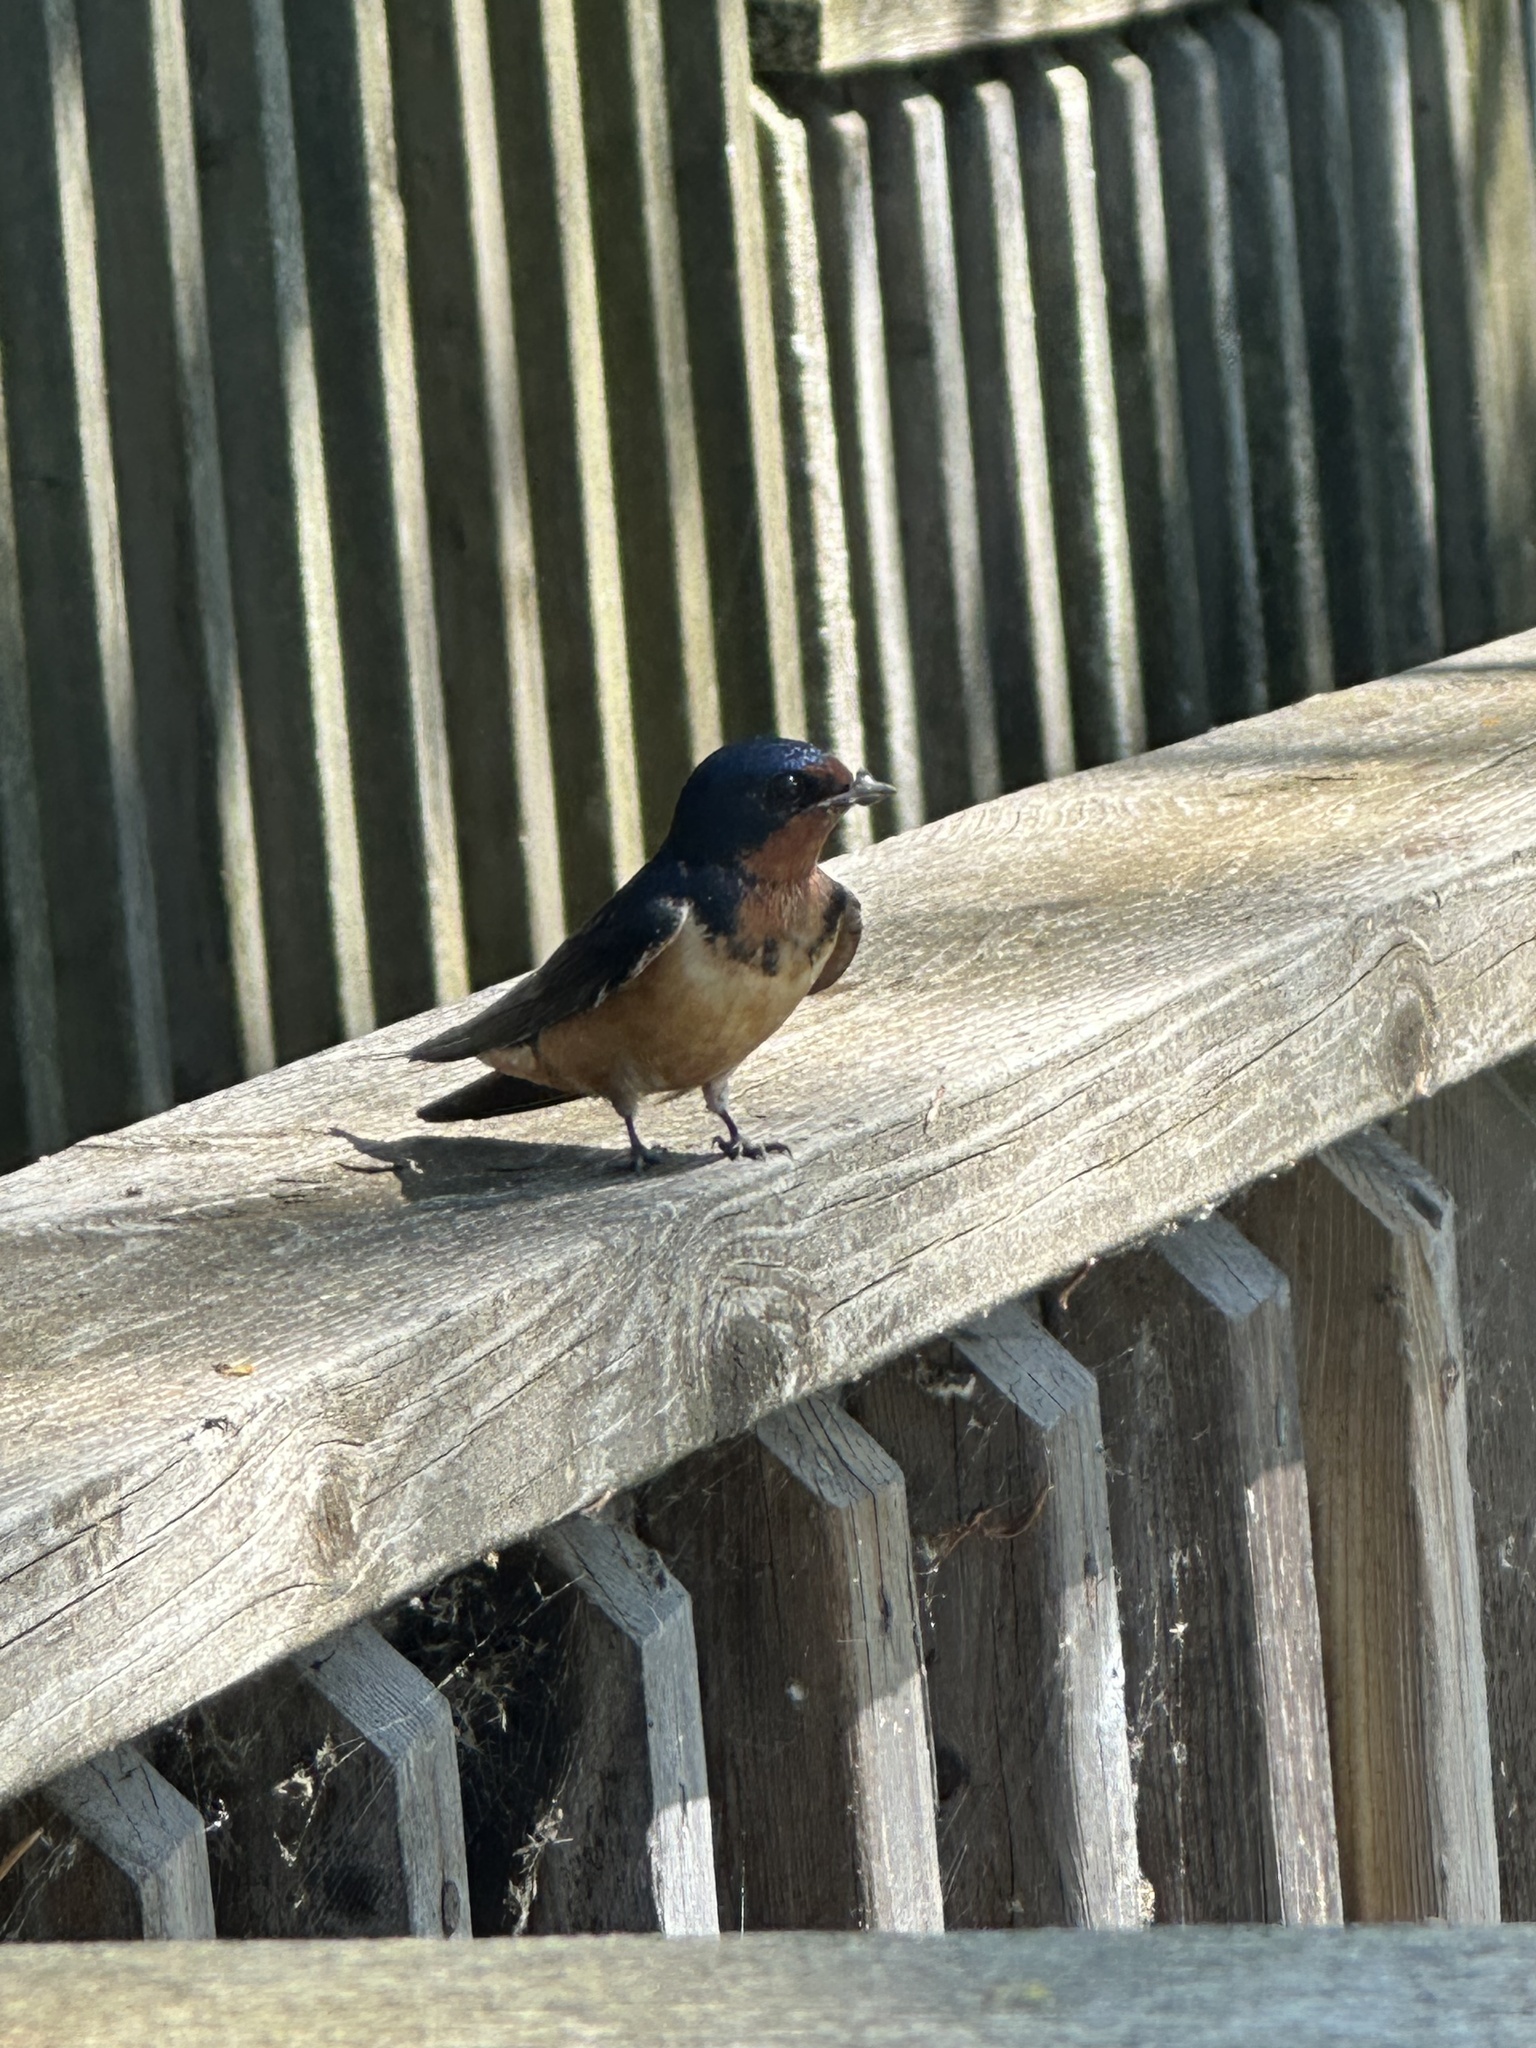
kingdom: Animalia
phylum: Chordata
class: Aves
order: Passeriformes
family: Hirundinidae
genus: Hirundo
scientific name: Hirundo rustica
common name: Barn swallow
